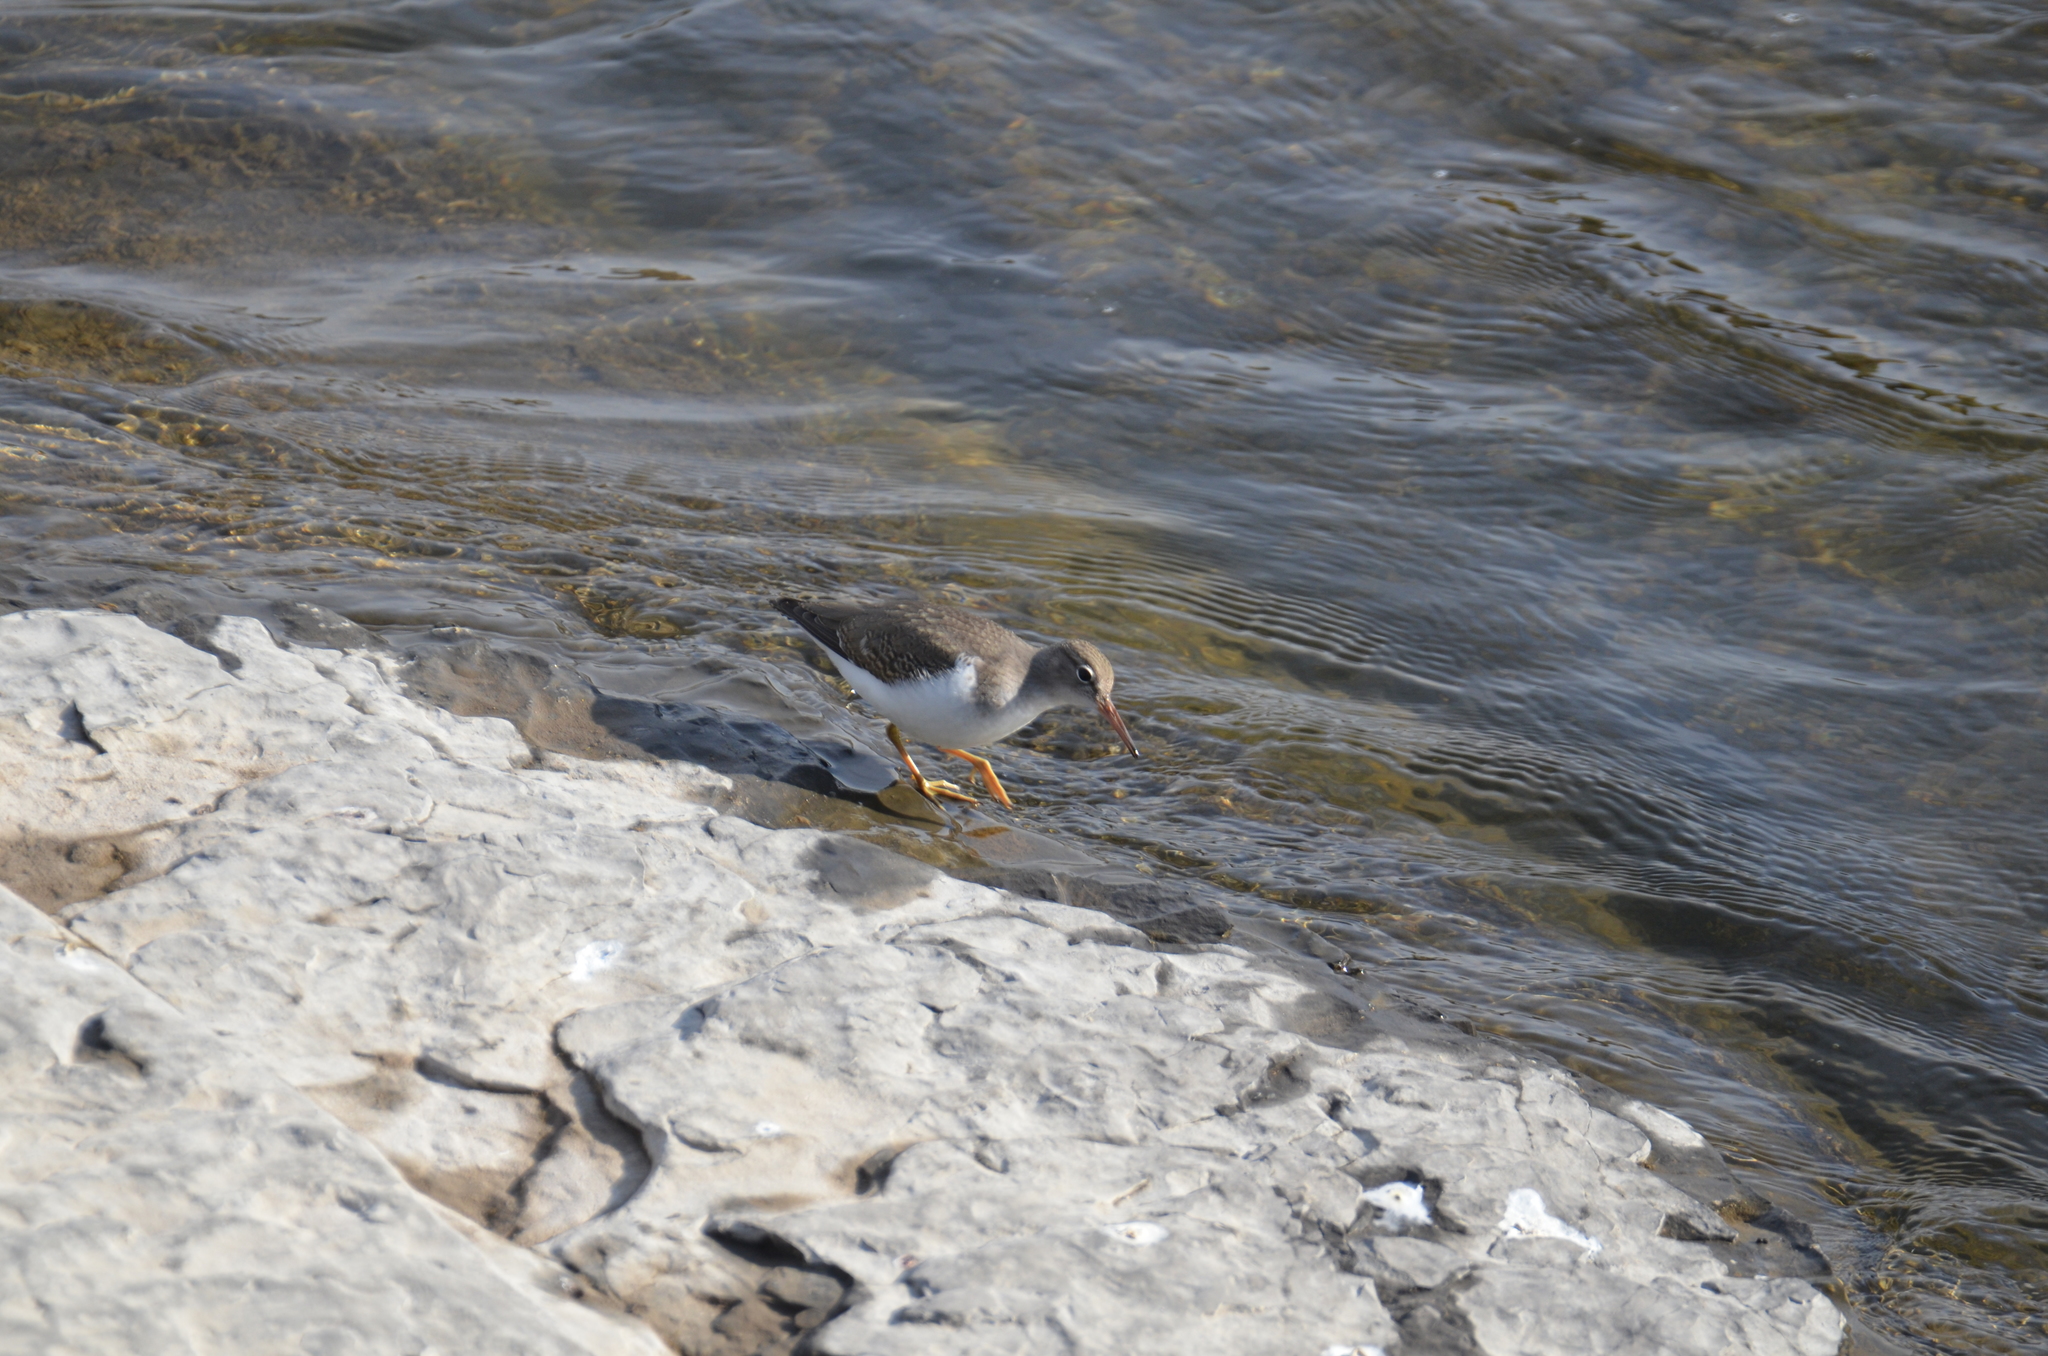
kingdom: Animalia
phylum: Chordata
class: Aves
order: Charadriiformes
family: Scolopacidae
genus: Actitis
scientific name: Actitis macularius
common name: Spotted sandpiper
